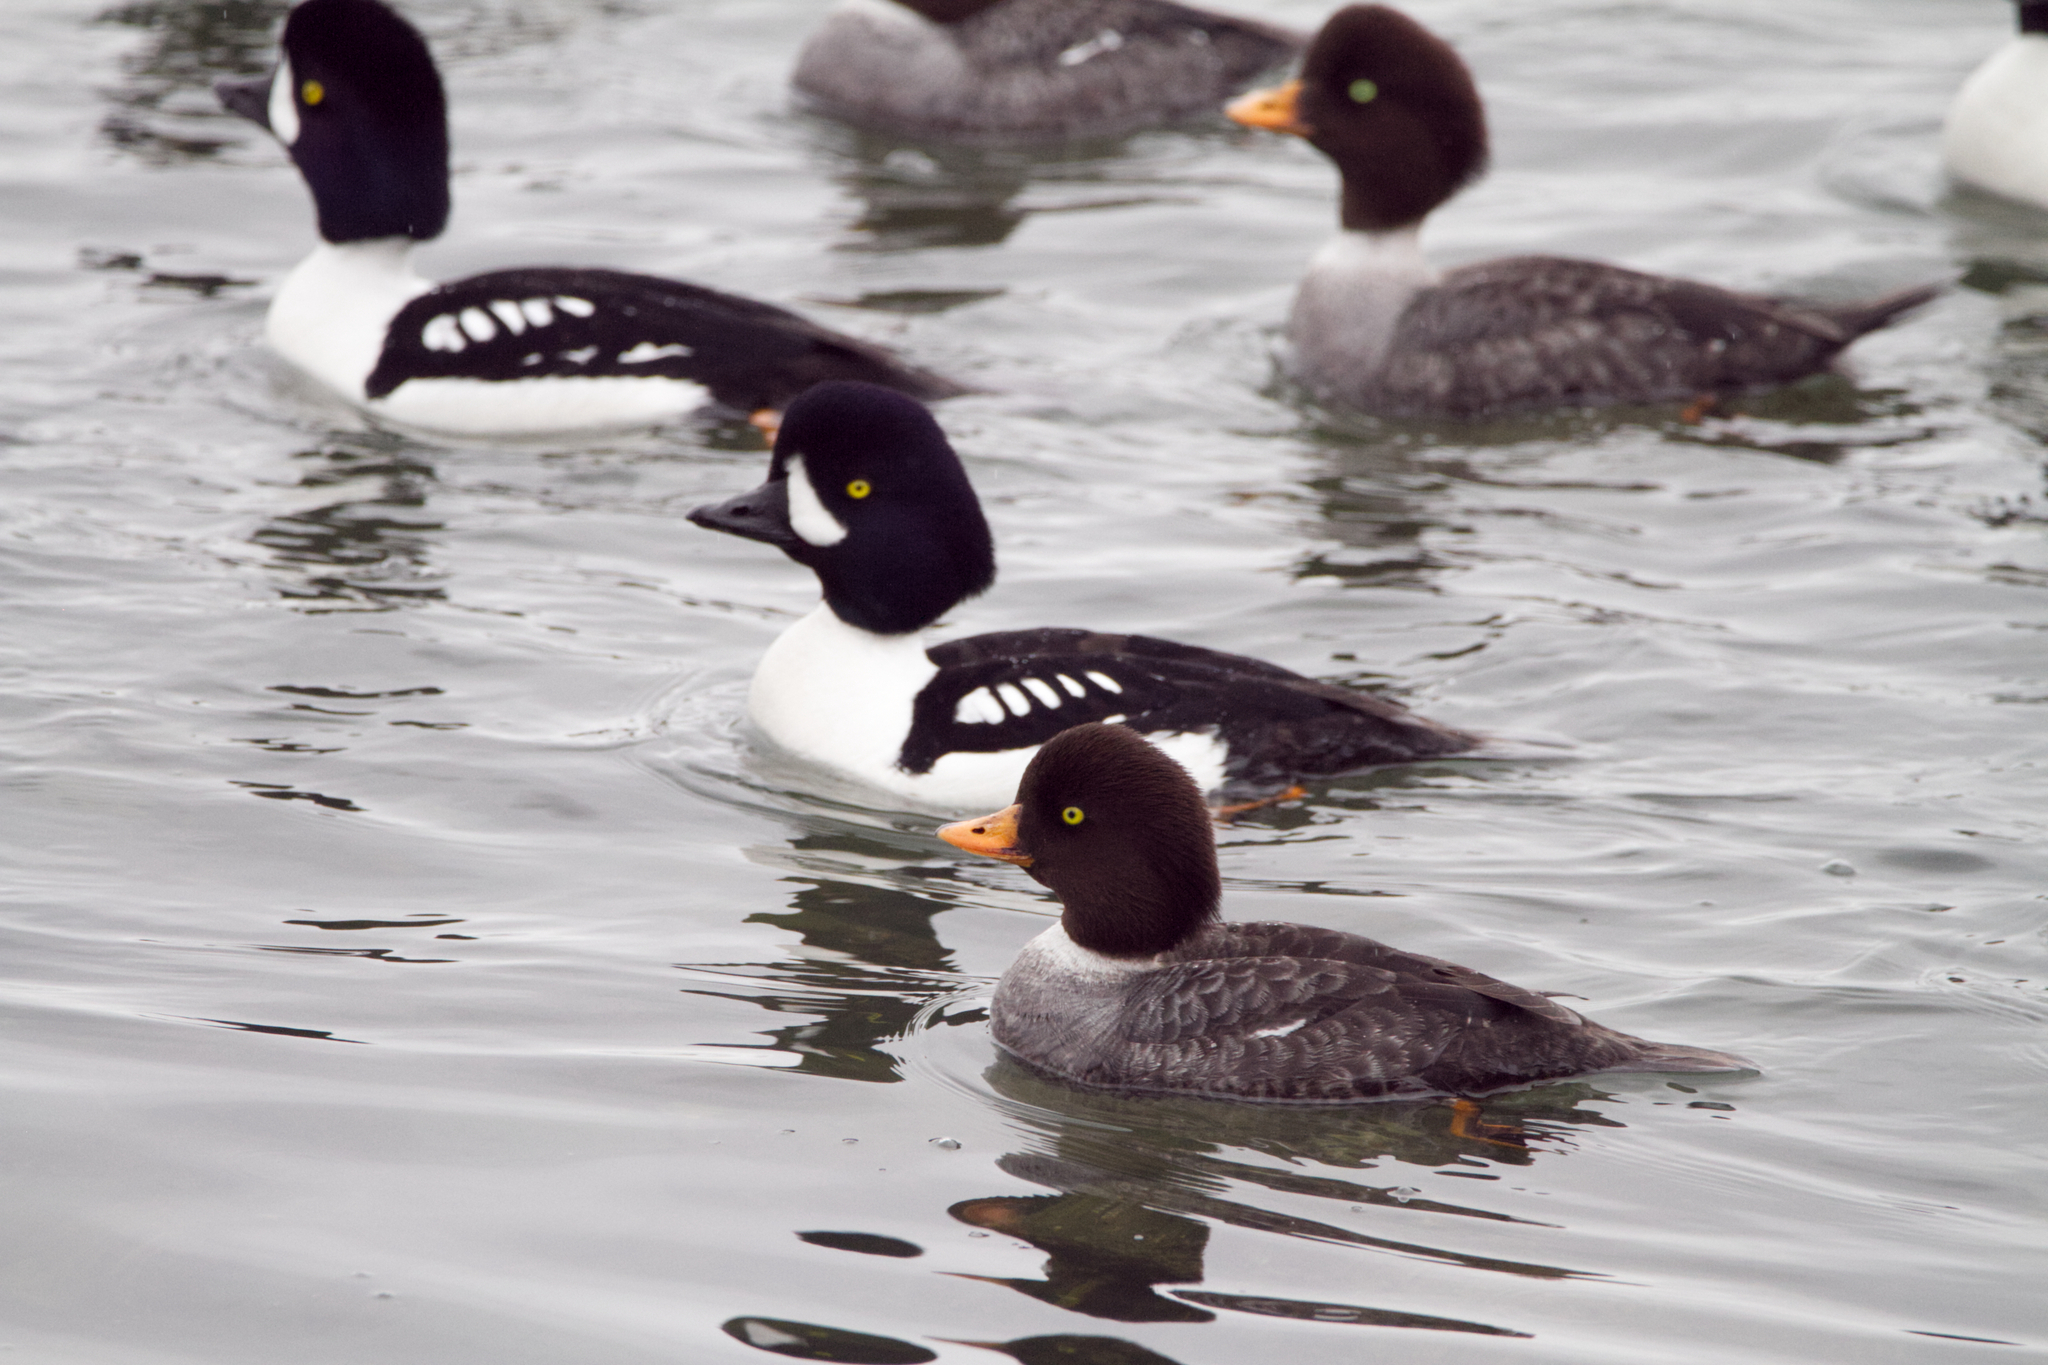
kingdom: Animalia
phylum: Chordata
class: Aves
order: Anseriformes
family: Anatidae
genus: Bucephala
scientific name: Bucephala islandica
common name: Barrow's goldeneye
